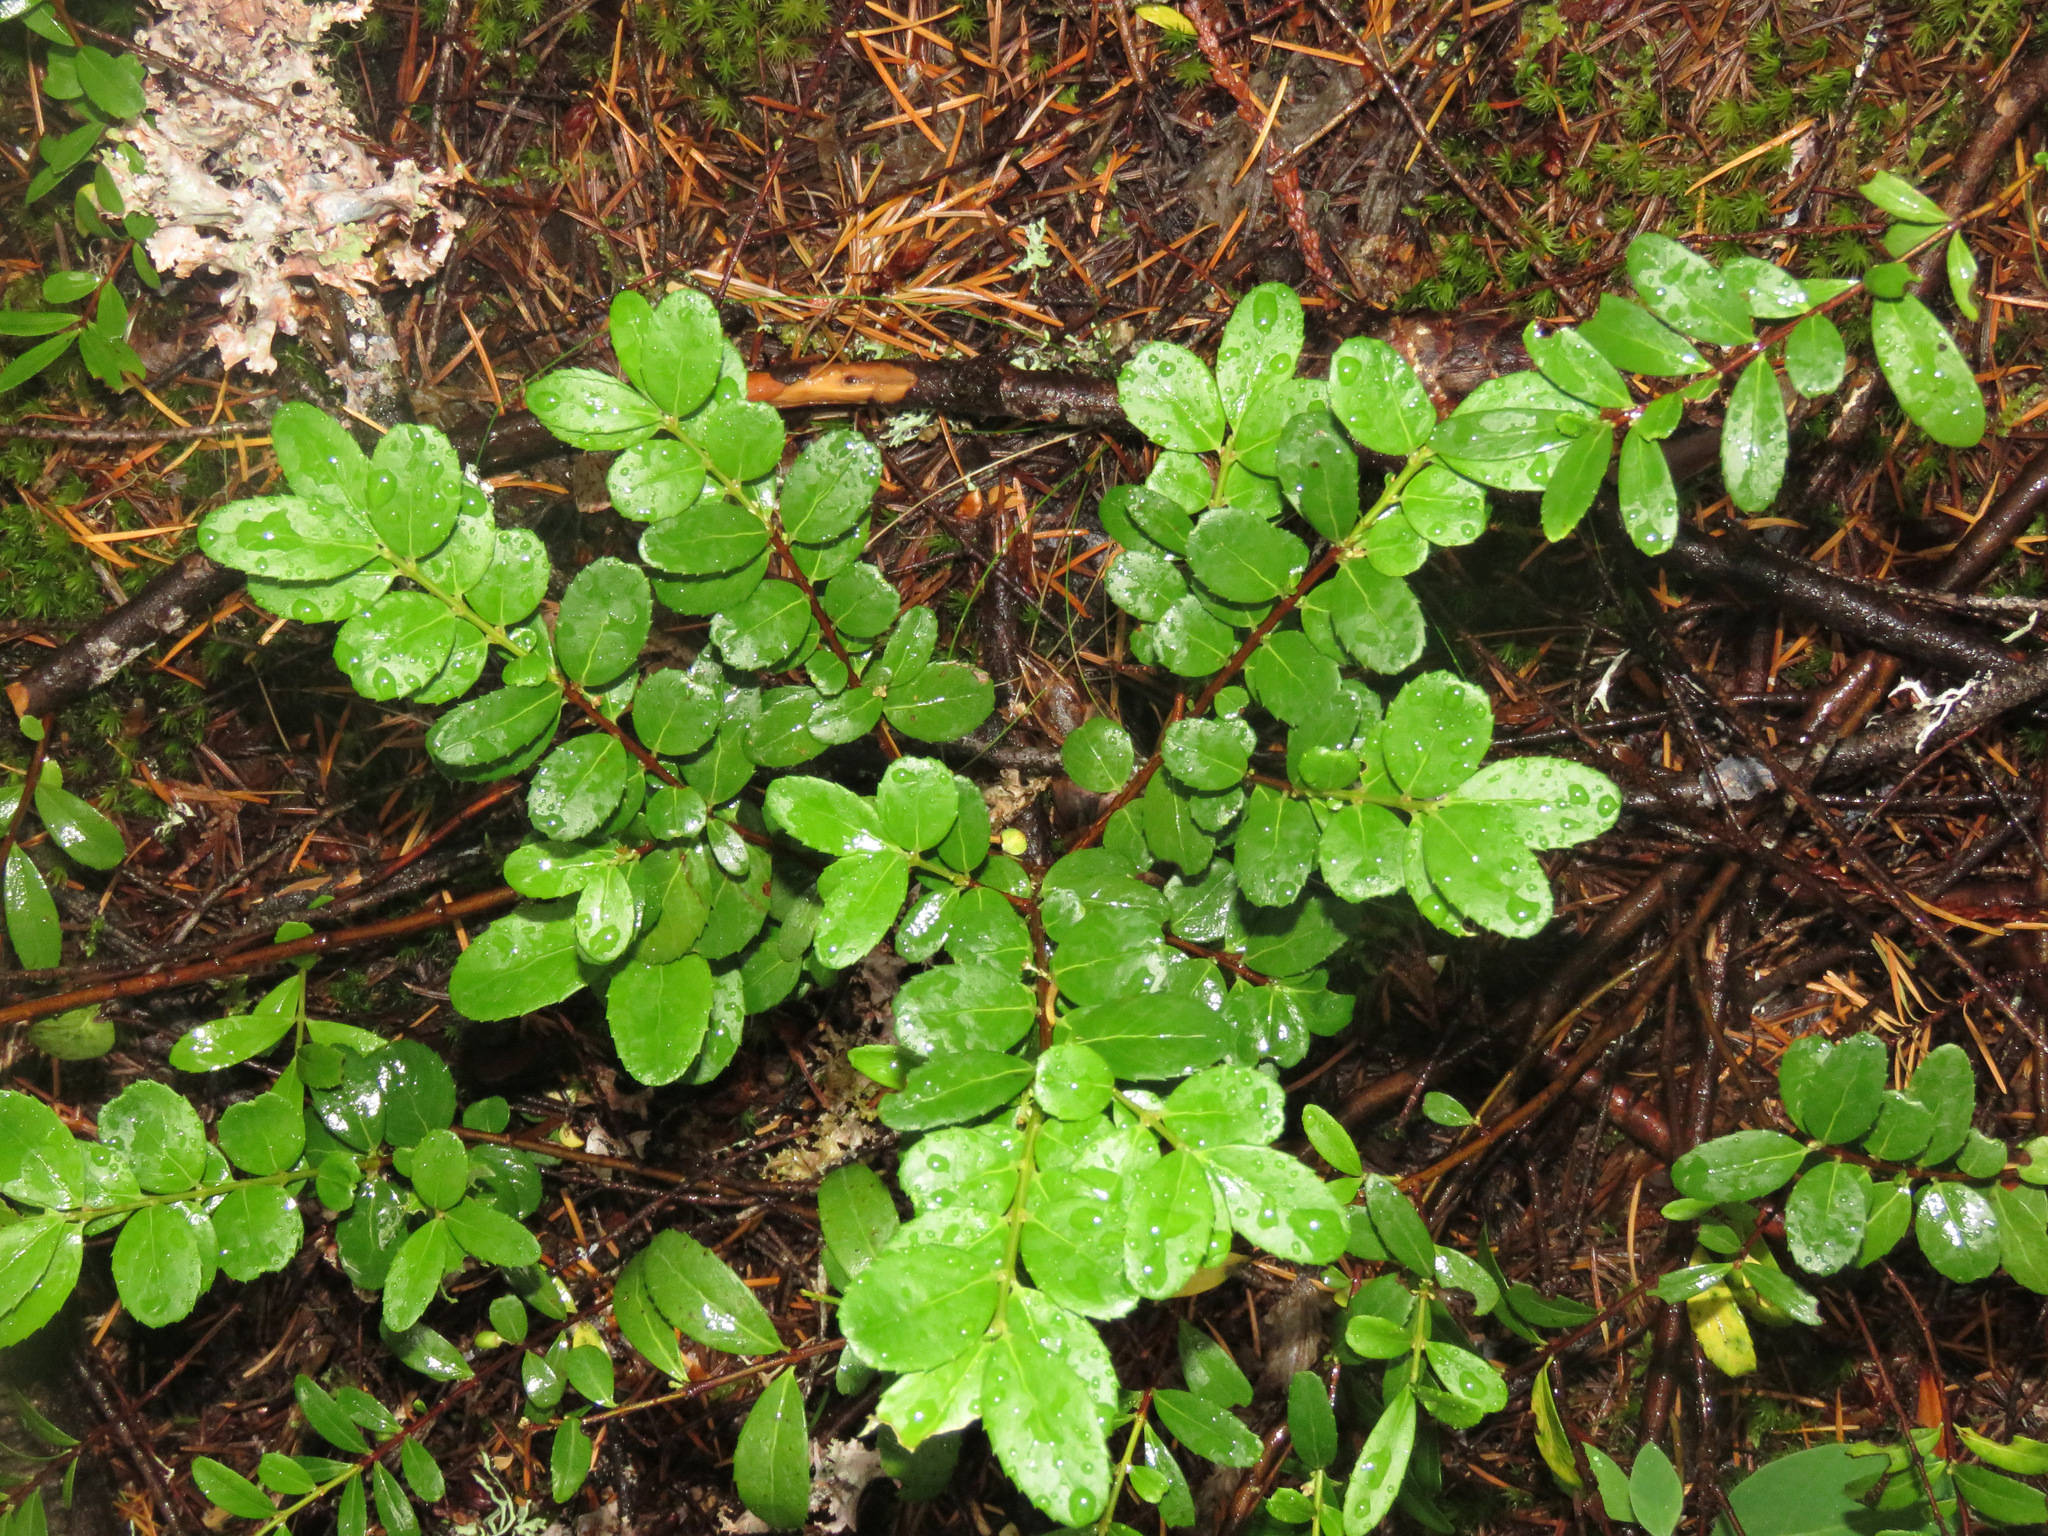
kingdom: Plantae
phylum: Tracheophyta
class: Magnoliopsida
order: Celastrales
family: Celastraceae
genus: Paxistima
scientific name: Paxistima myrsinites
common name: Mountain-lover
